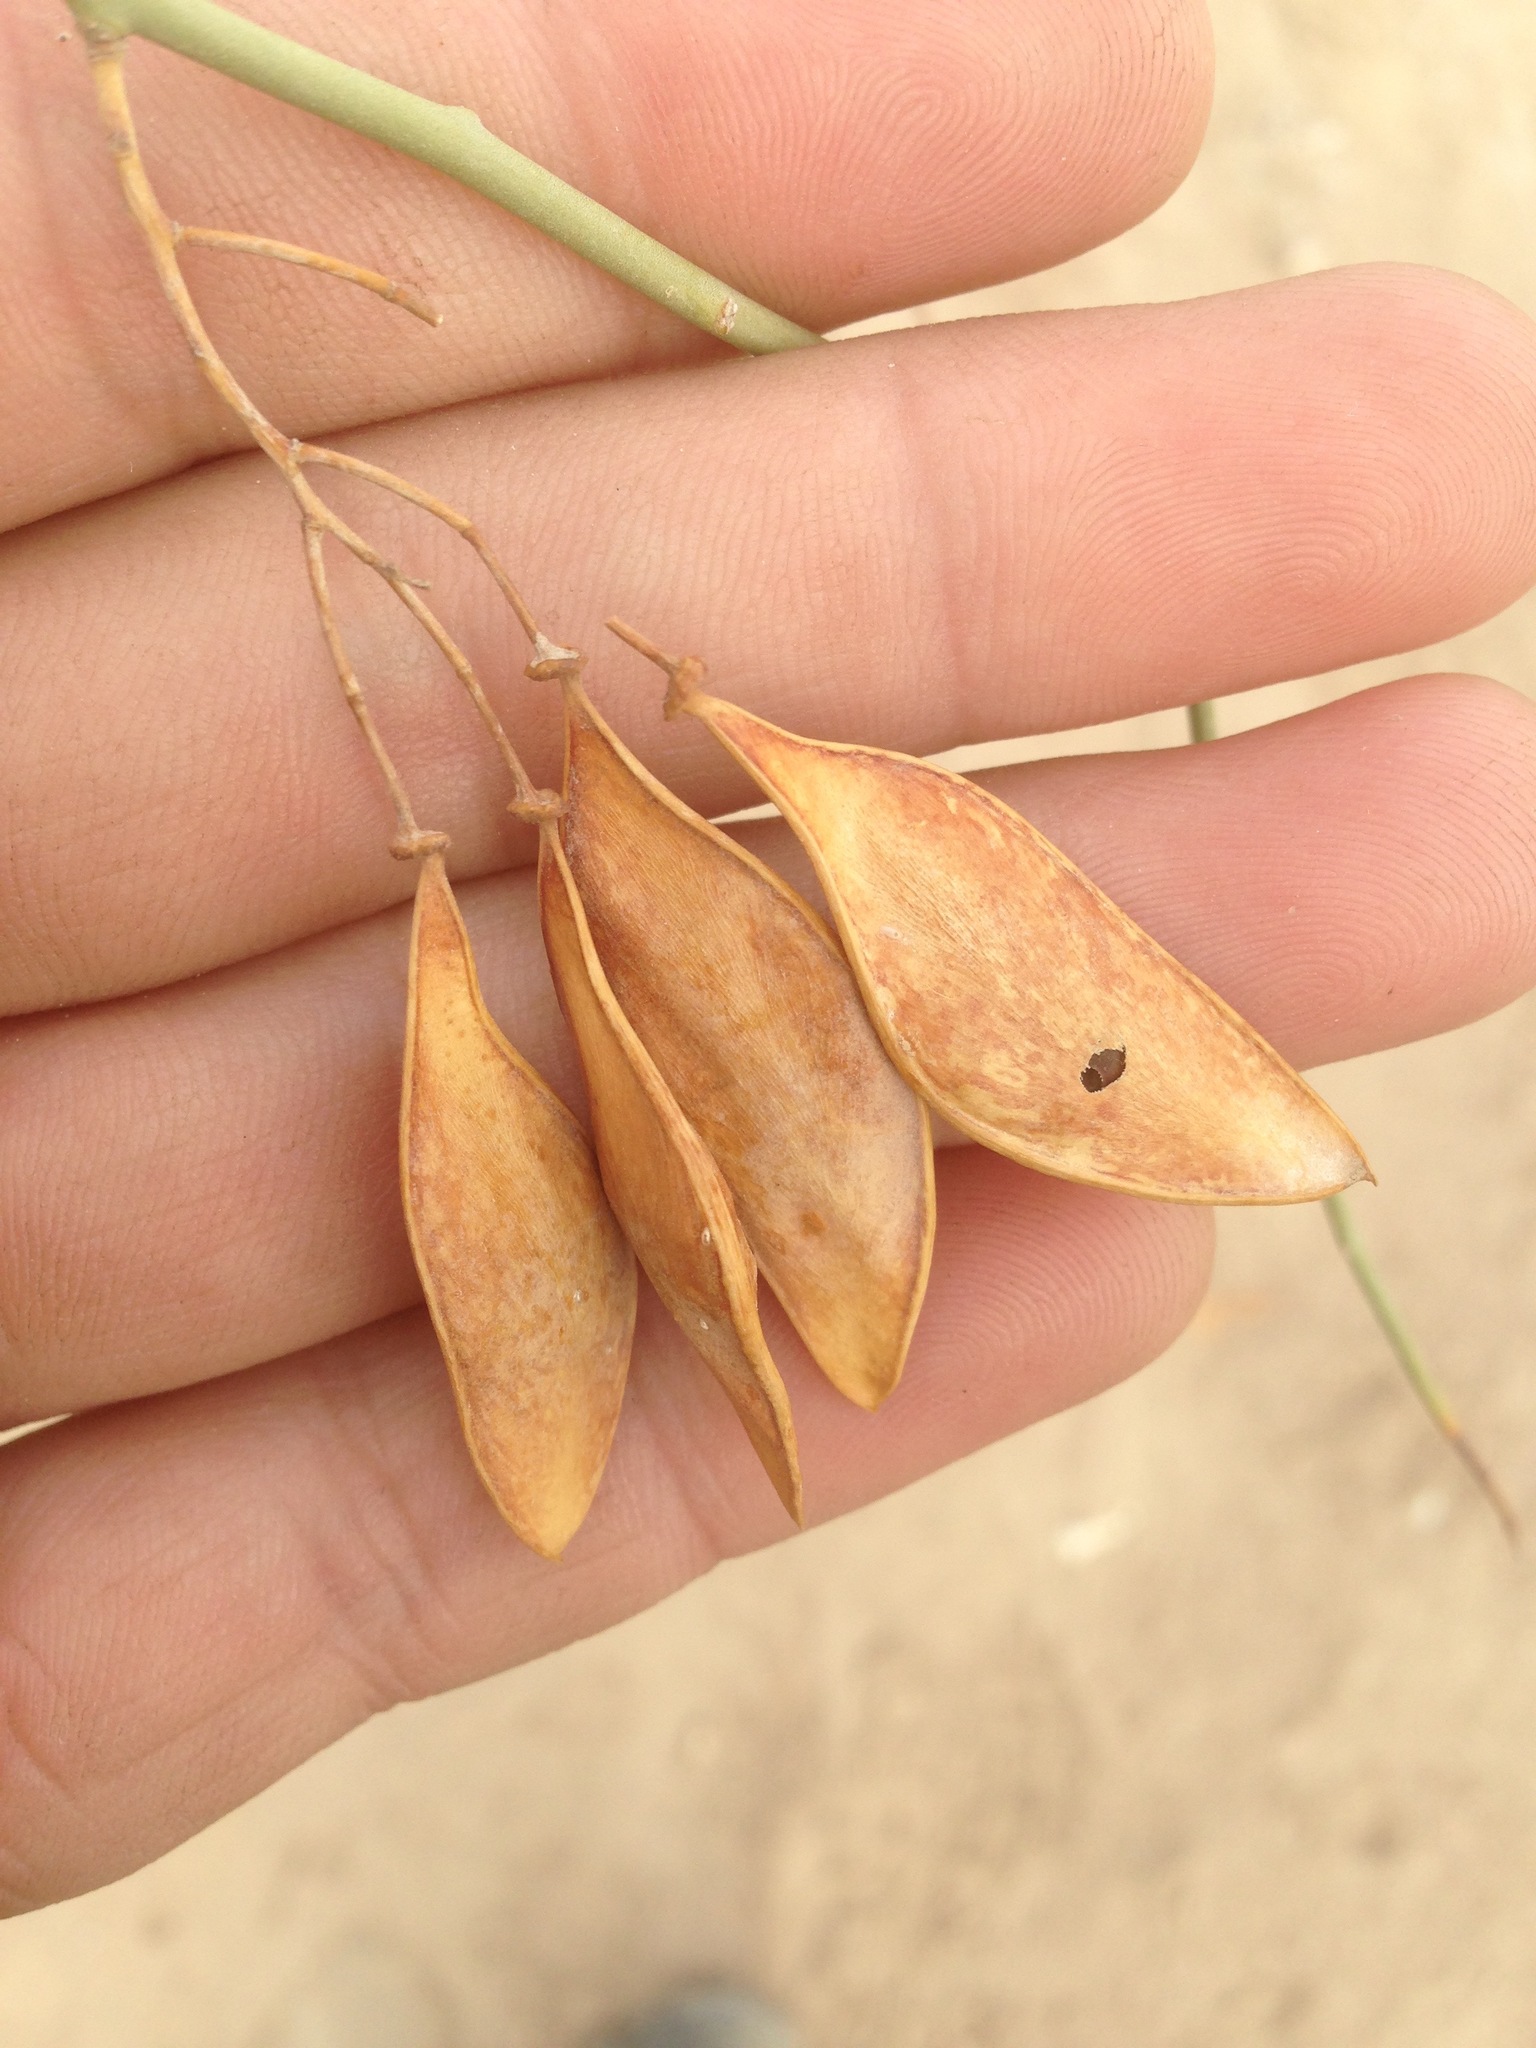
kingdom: Plantae
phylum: Tracheophyta
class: Magnoliopsida
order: Fabales
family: Fabaceae
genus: Parkinsonia
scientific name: Parkinsonia florida
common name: Blue paloverde
